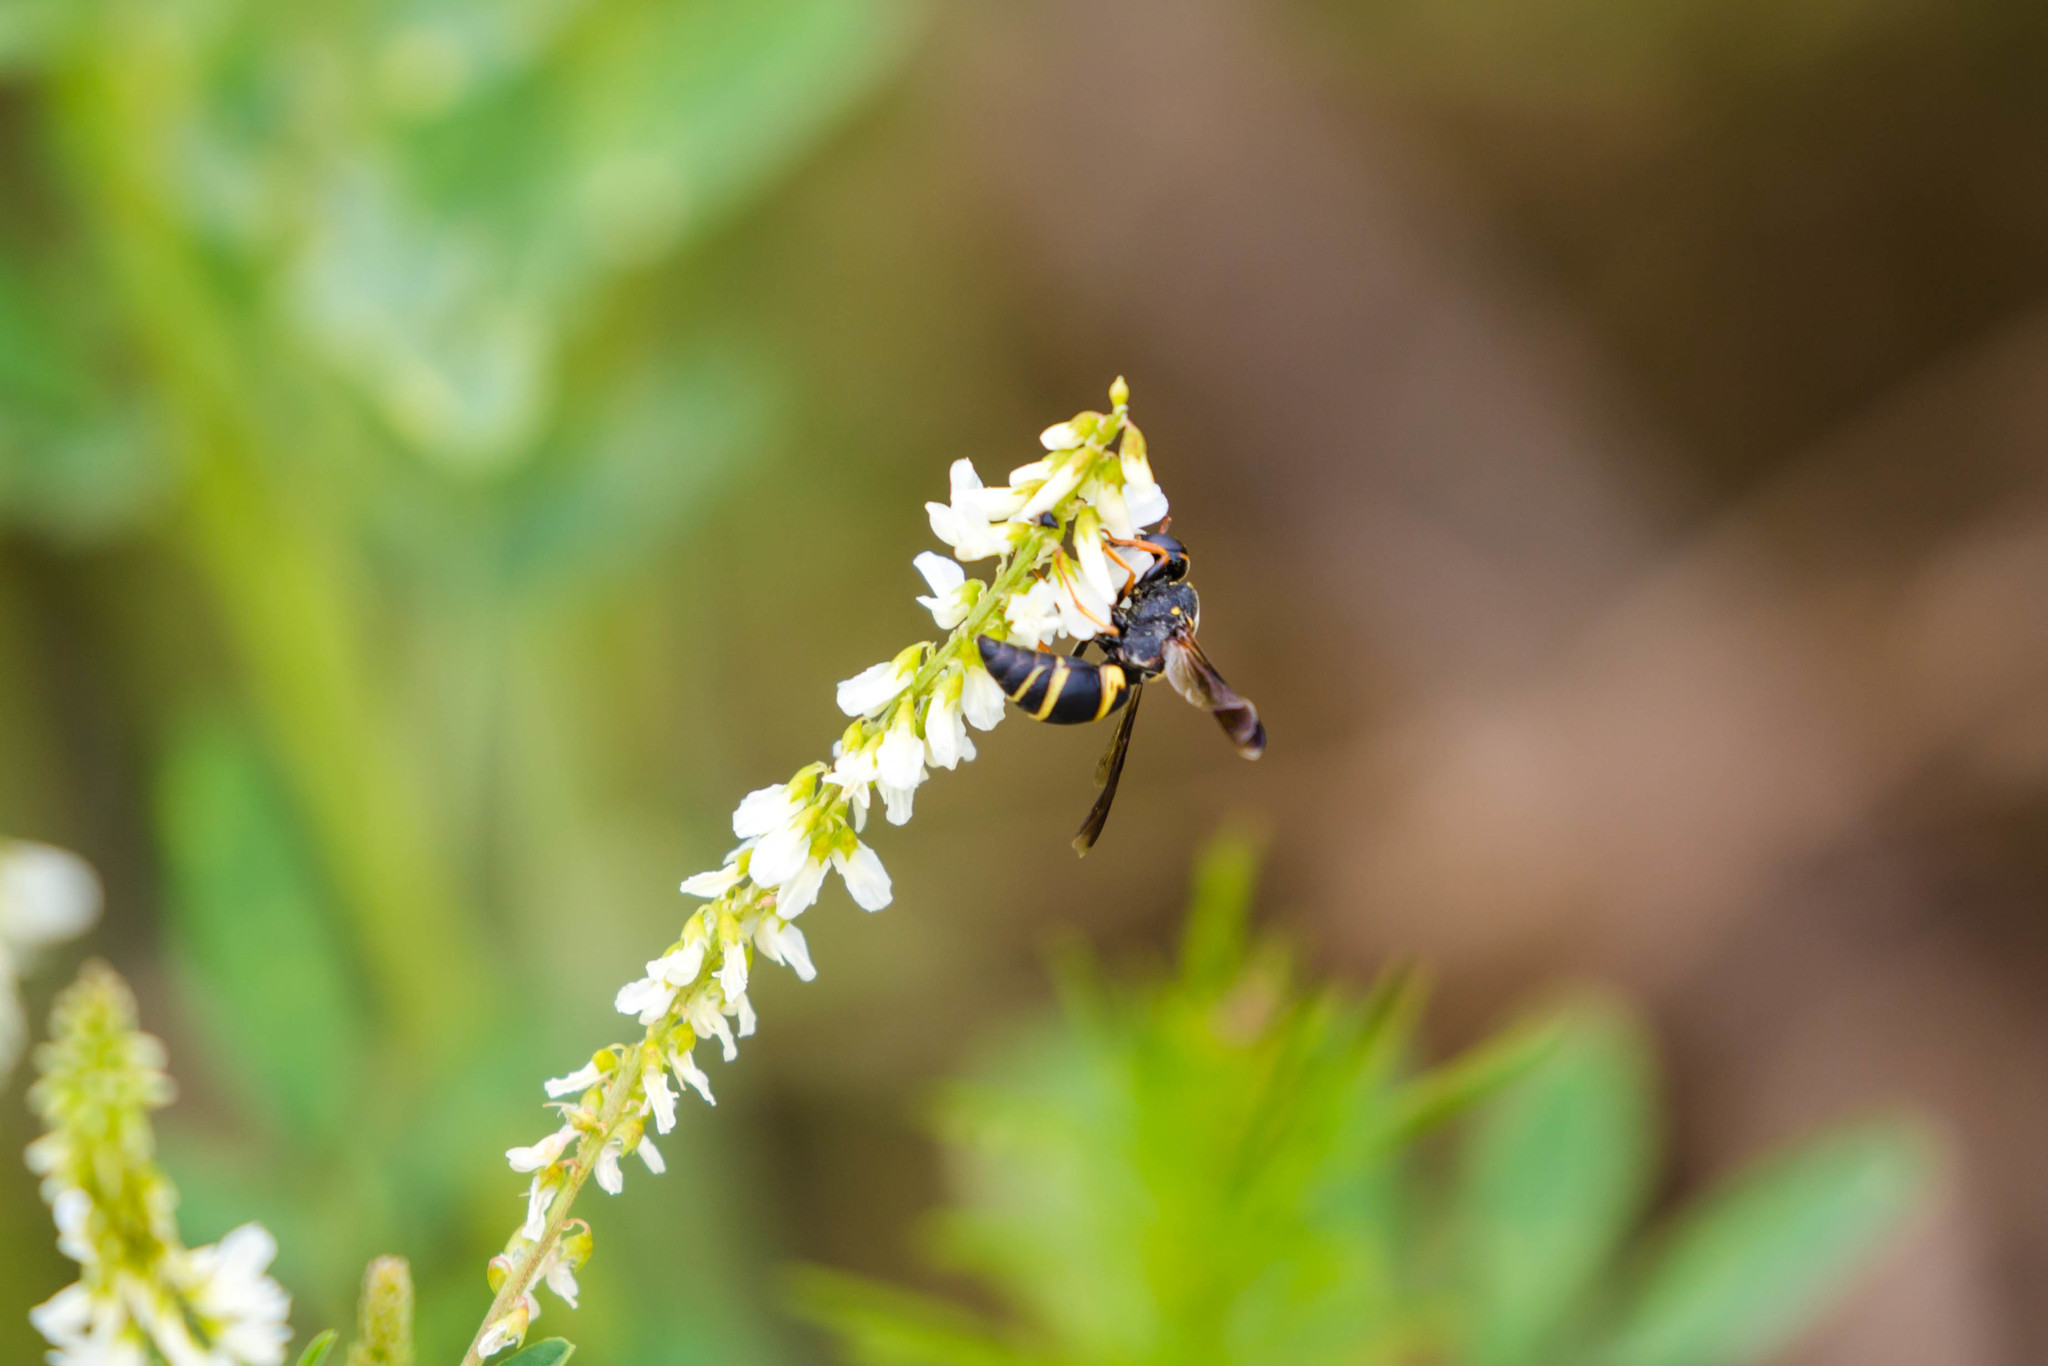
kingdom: Animalia
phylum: Arthropoda
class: Insecta
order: Hymenoptera
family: Eumenidae
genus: Euodynerus
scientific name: Euodynerus hidalgo
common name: Wasp
